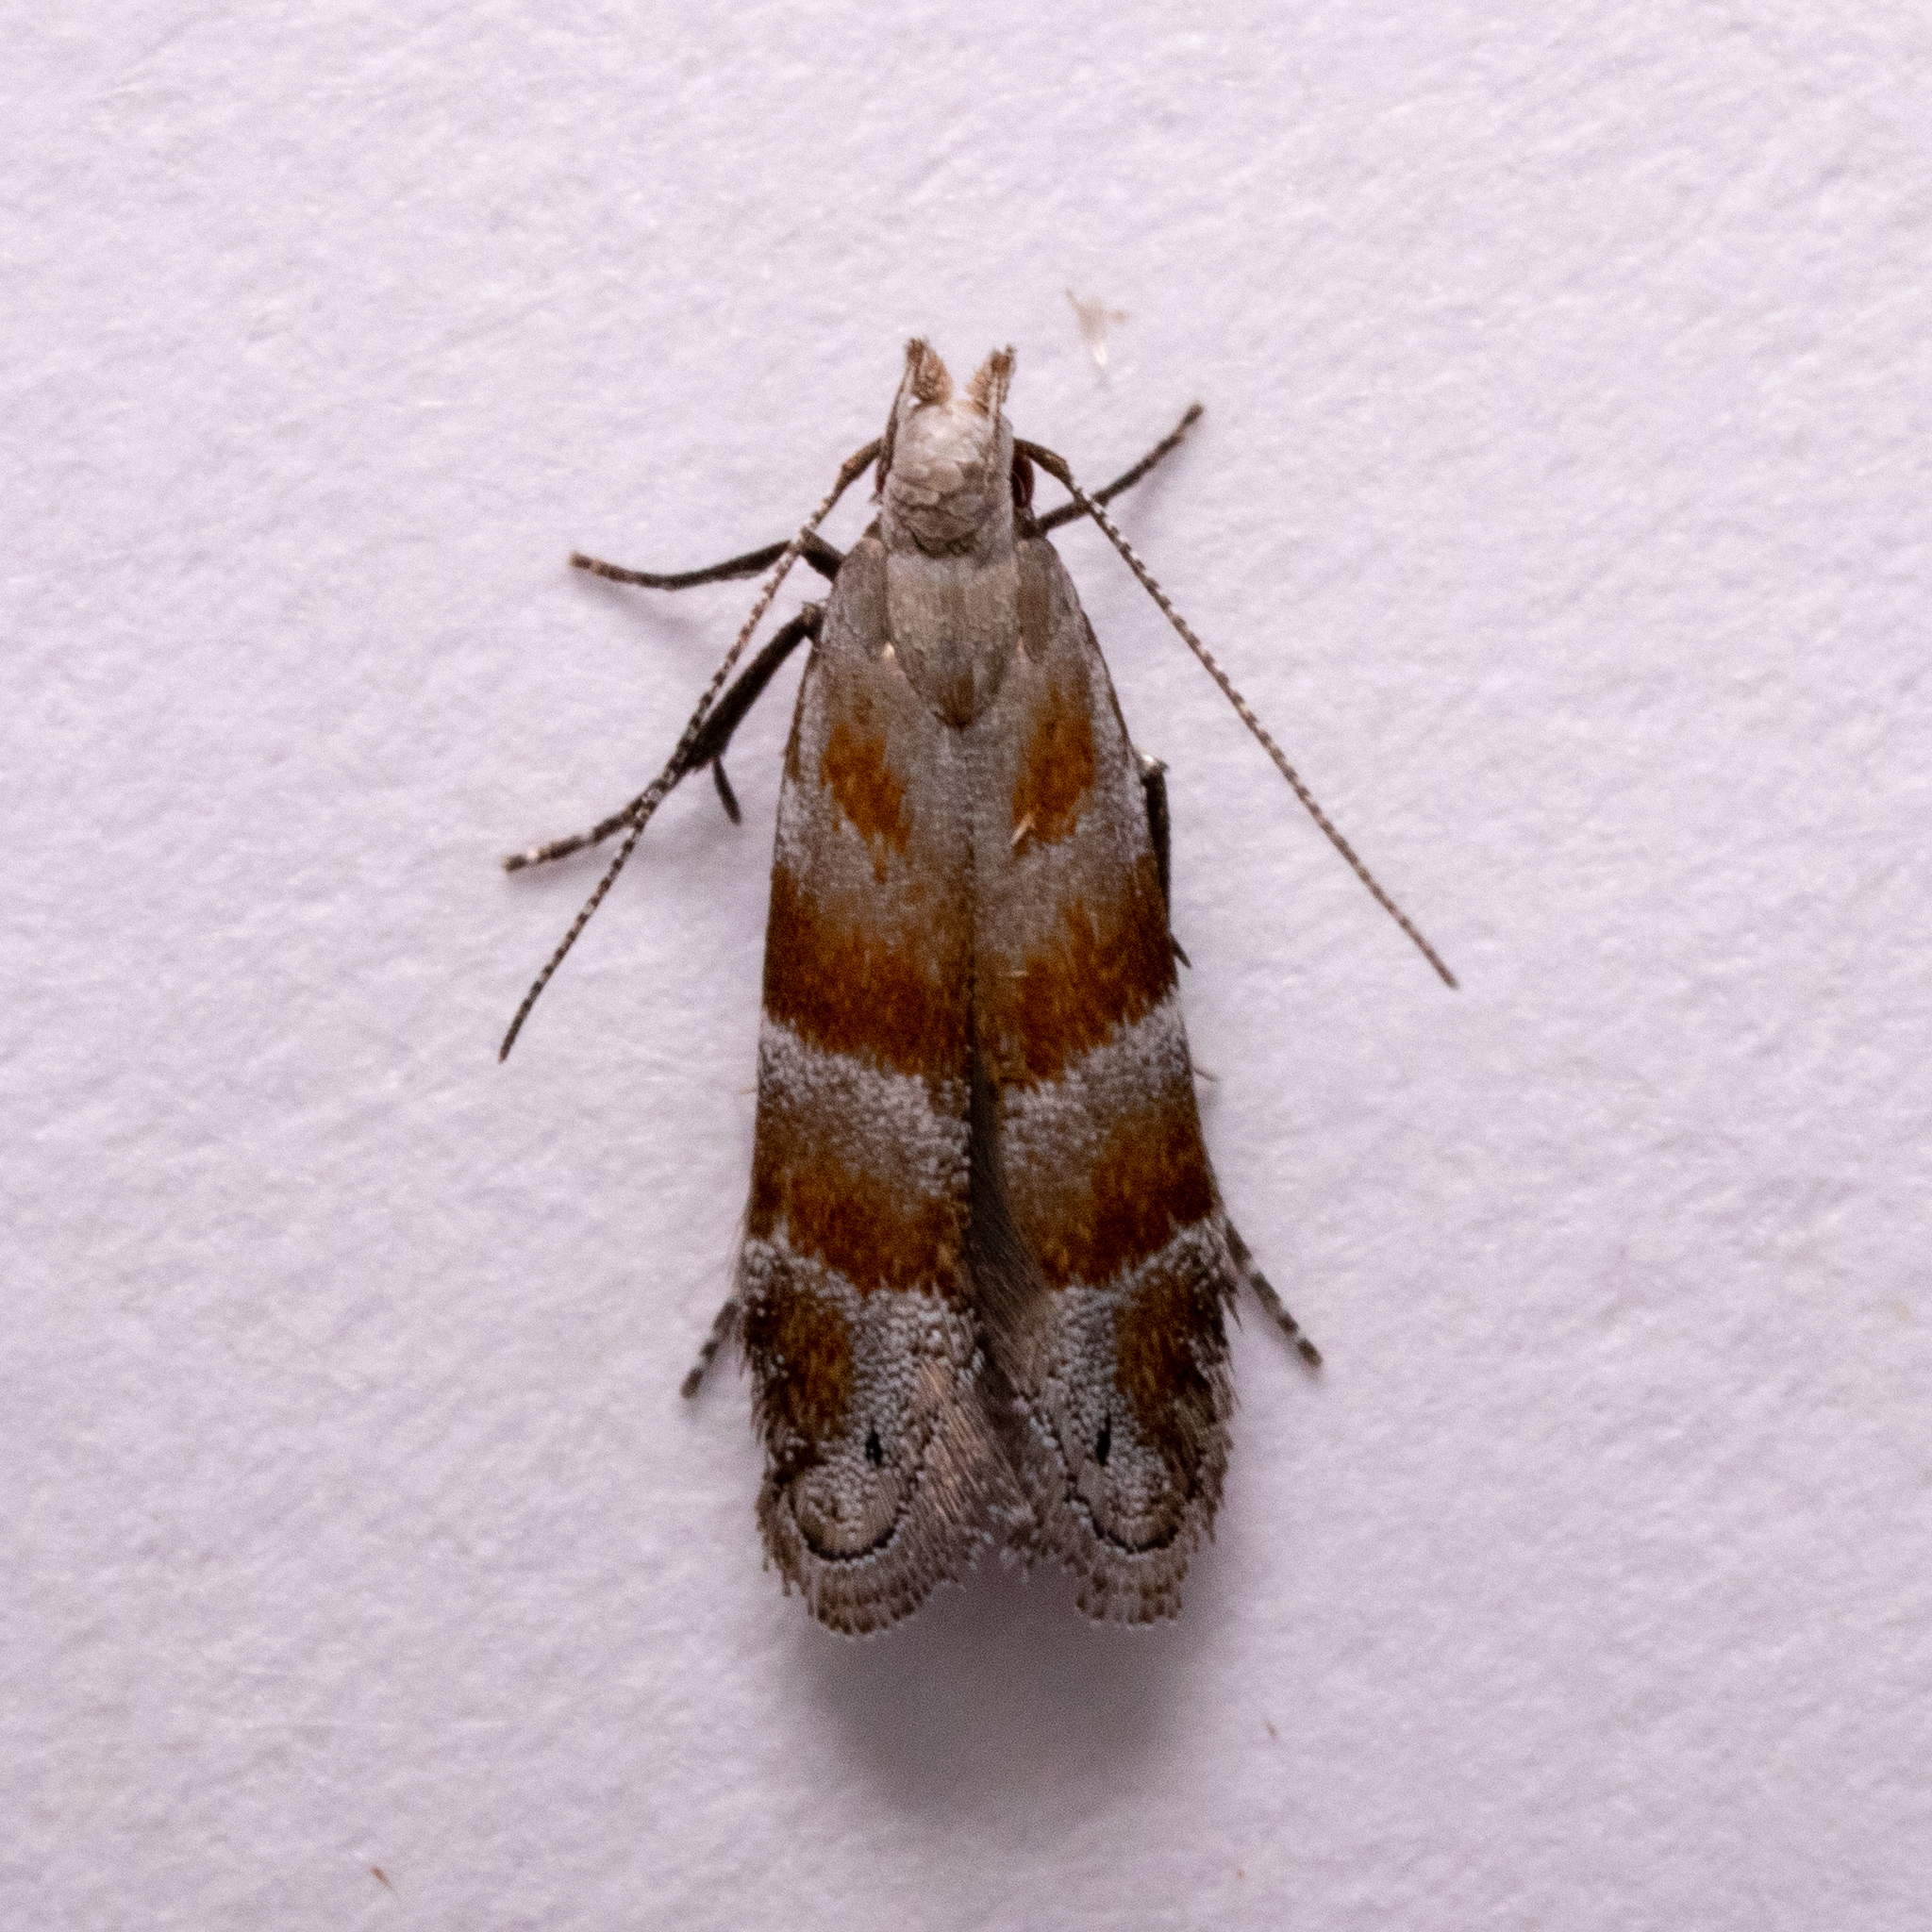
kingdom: Animalia
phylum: Arthropoda
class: Insecta
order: Lepidoptera
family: Gelechiidae
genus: Battaristis
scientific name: Battaristis vittella
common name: Orange stripe-backed moth
